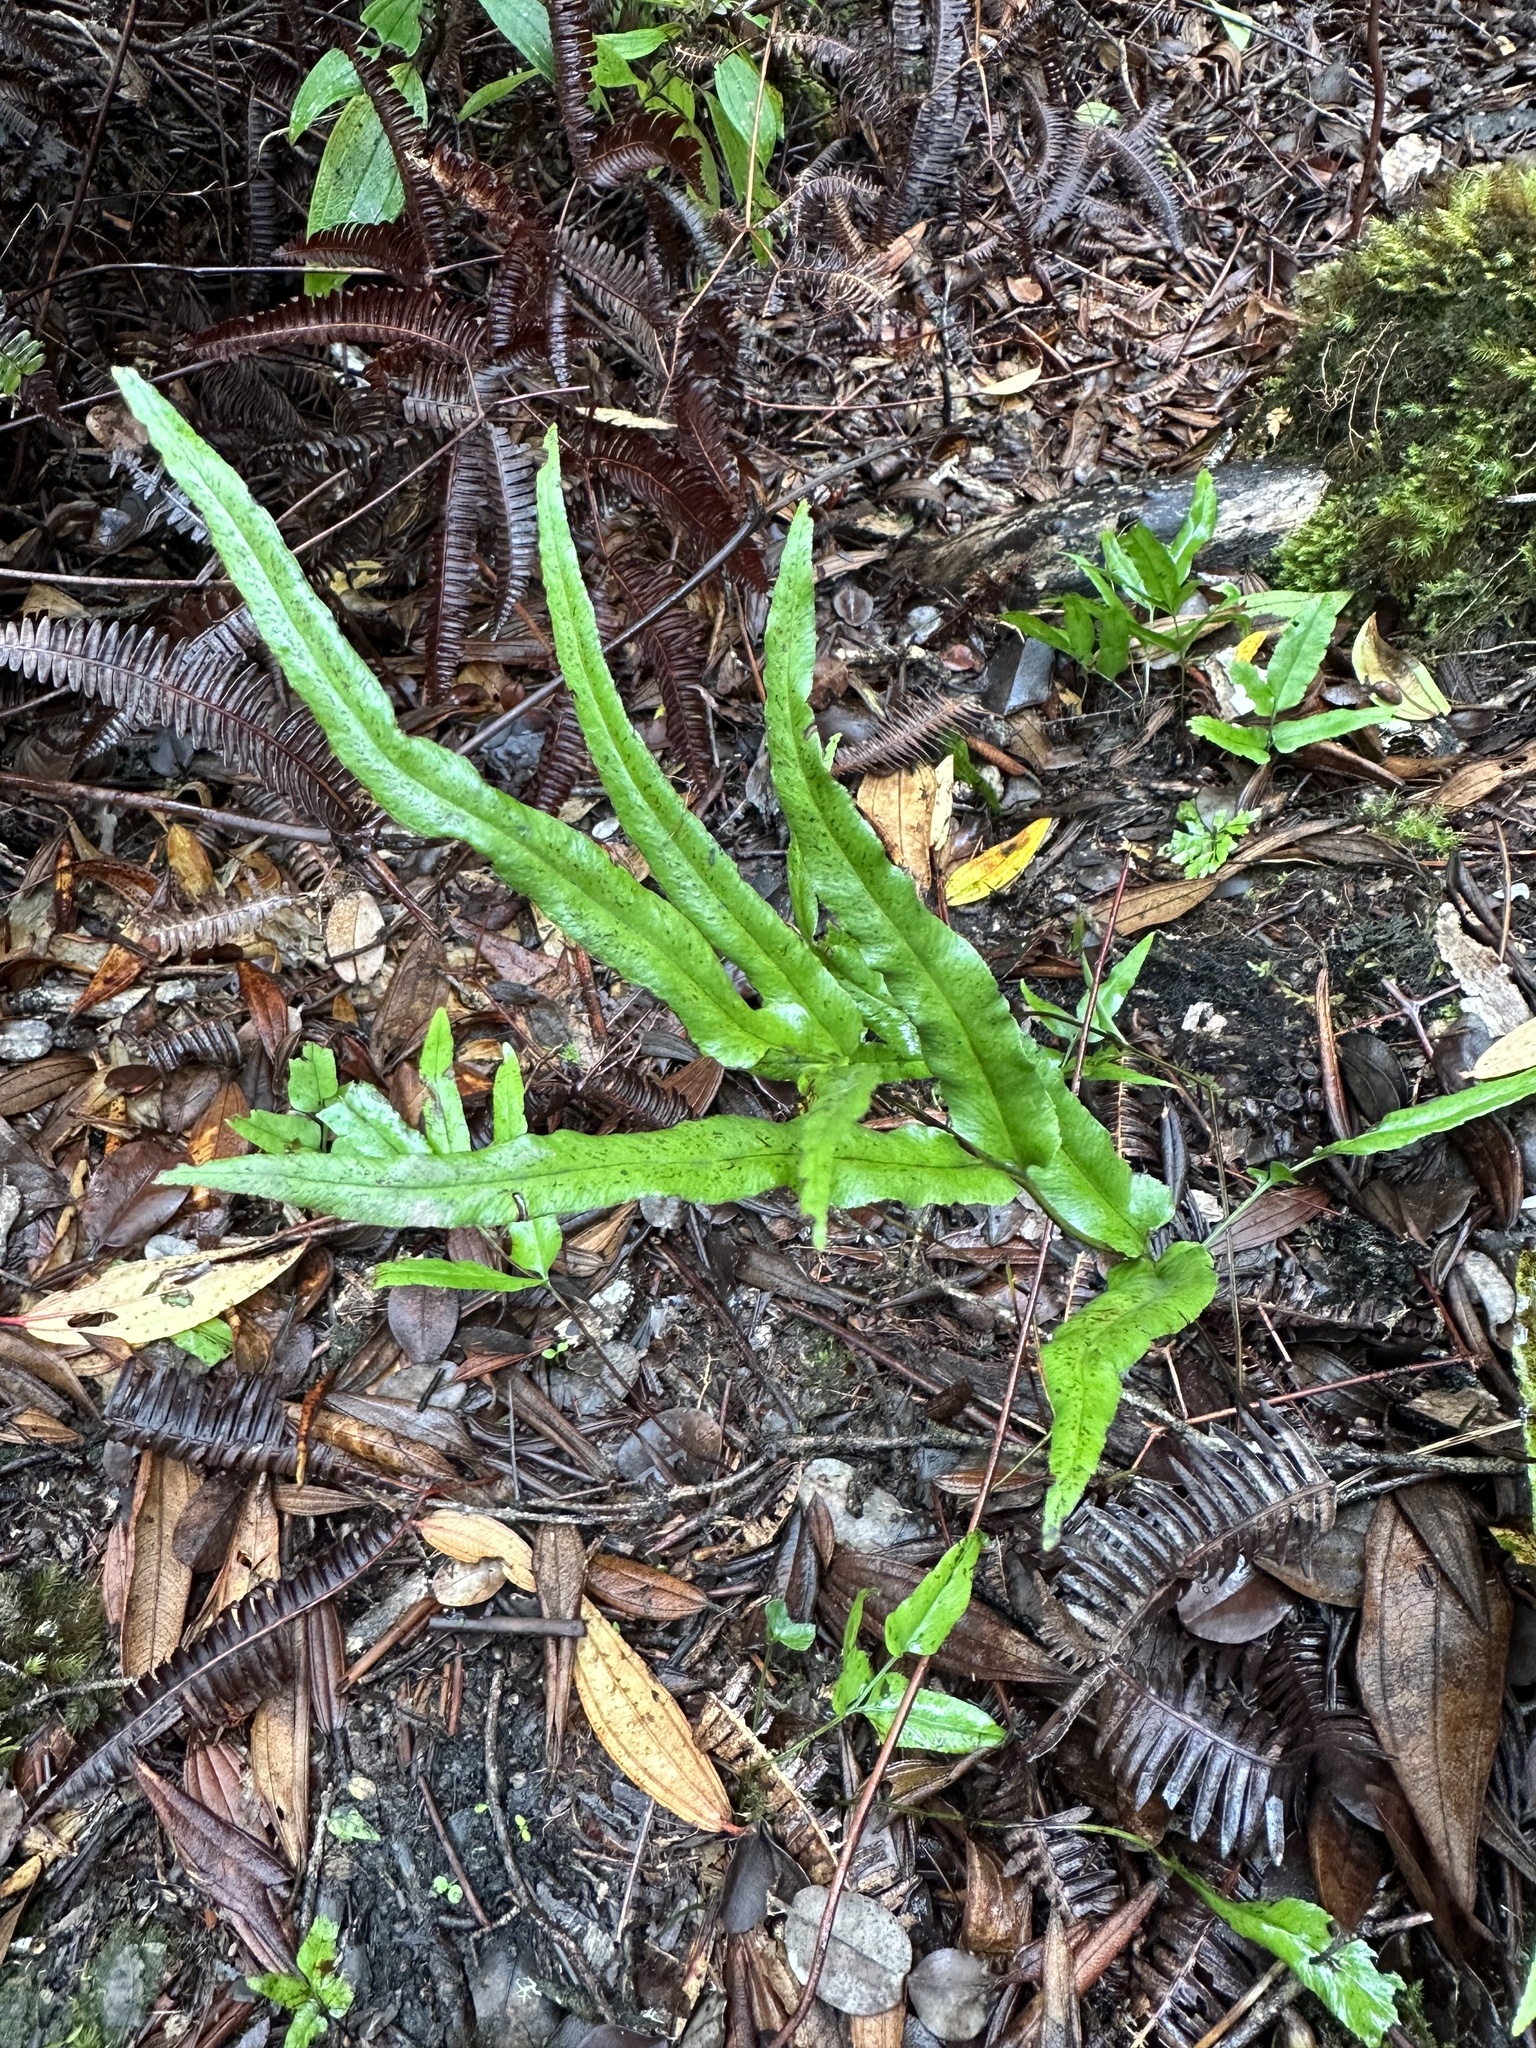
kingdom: Plantae
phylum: Tracheophyta
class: Polypodiopsida
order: Polypodiales
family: Lindsaeaceae
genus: Lindsaea
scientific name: Lindsaea ensifolia
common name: Graceful necklace fern
